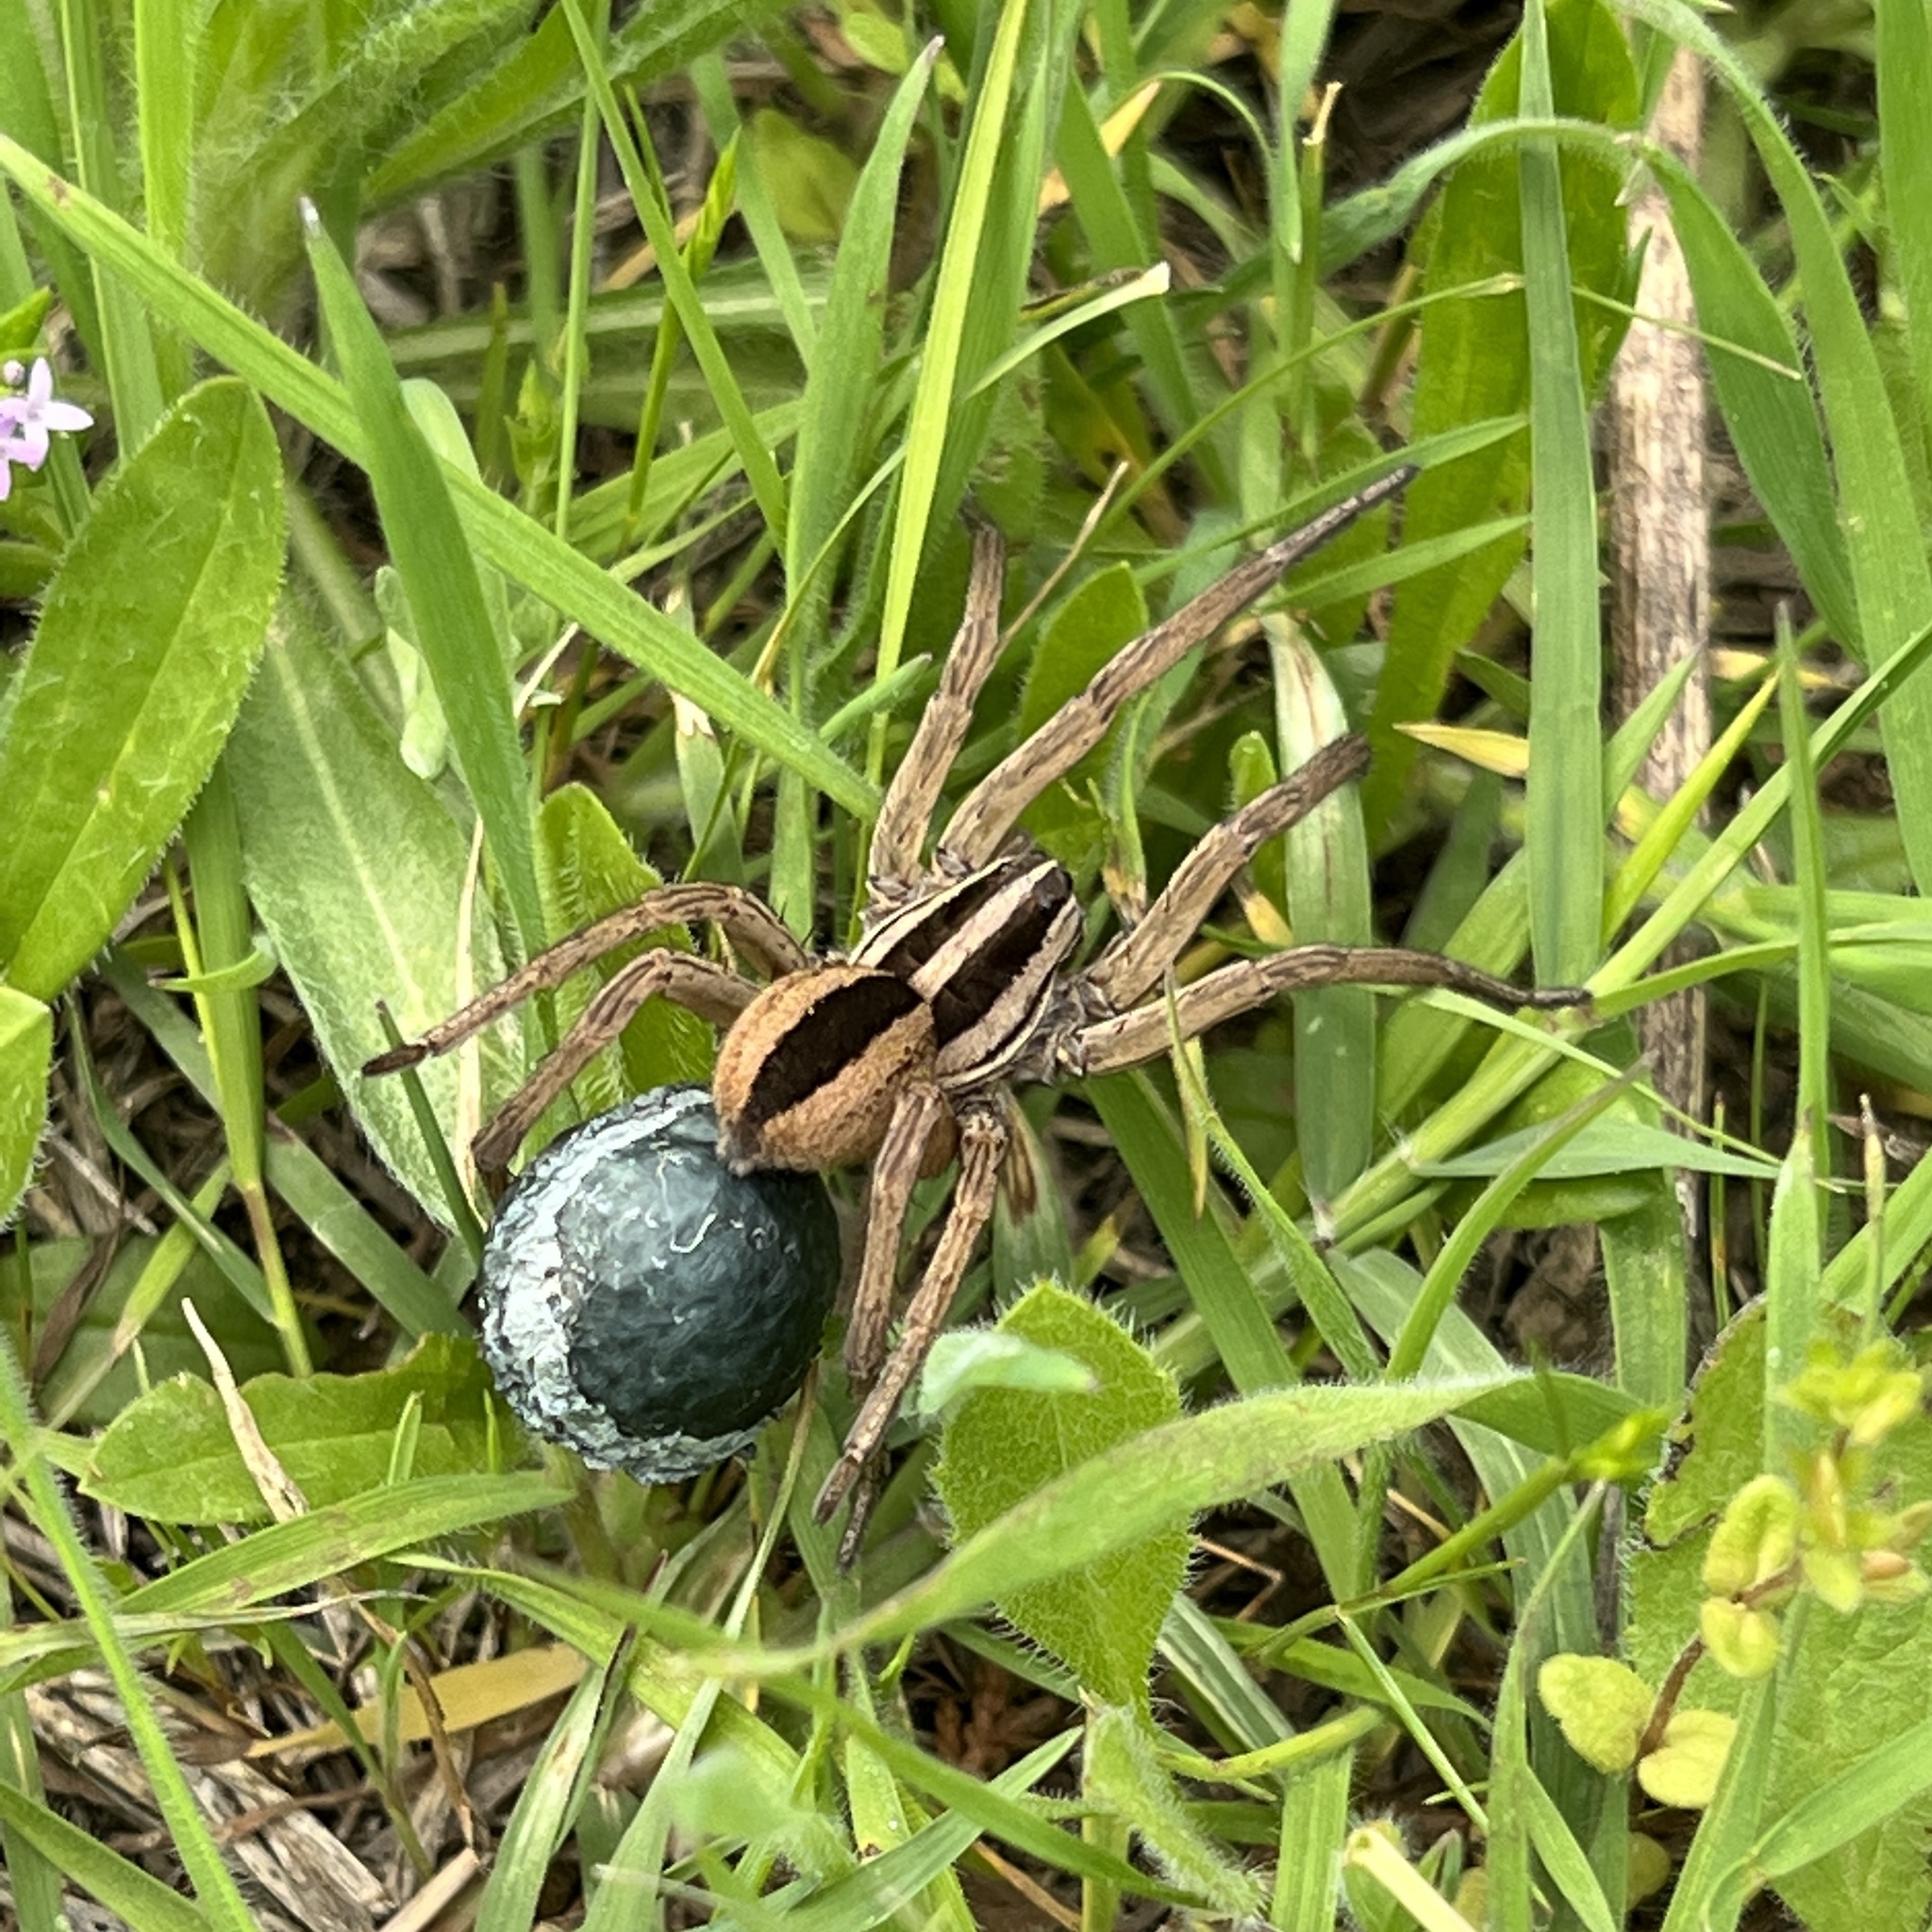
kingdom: Animalia
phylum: Arthropoda
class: Arachnida
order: Araneae
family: Lycosidae
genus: Rabidosa
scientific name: Rabidosa punctulata
